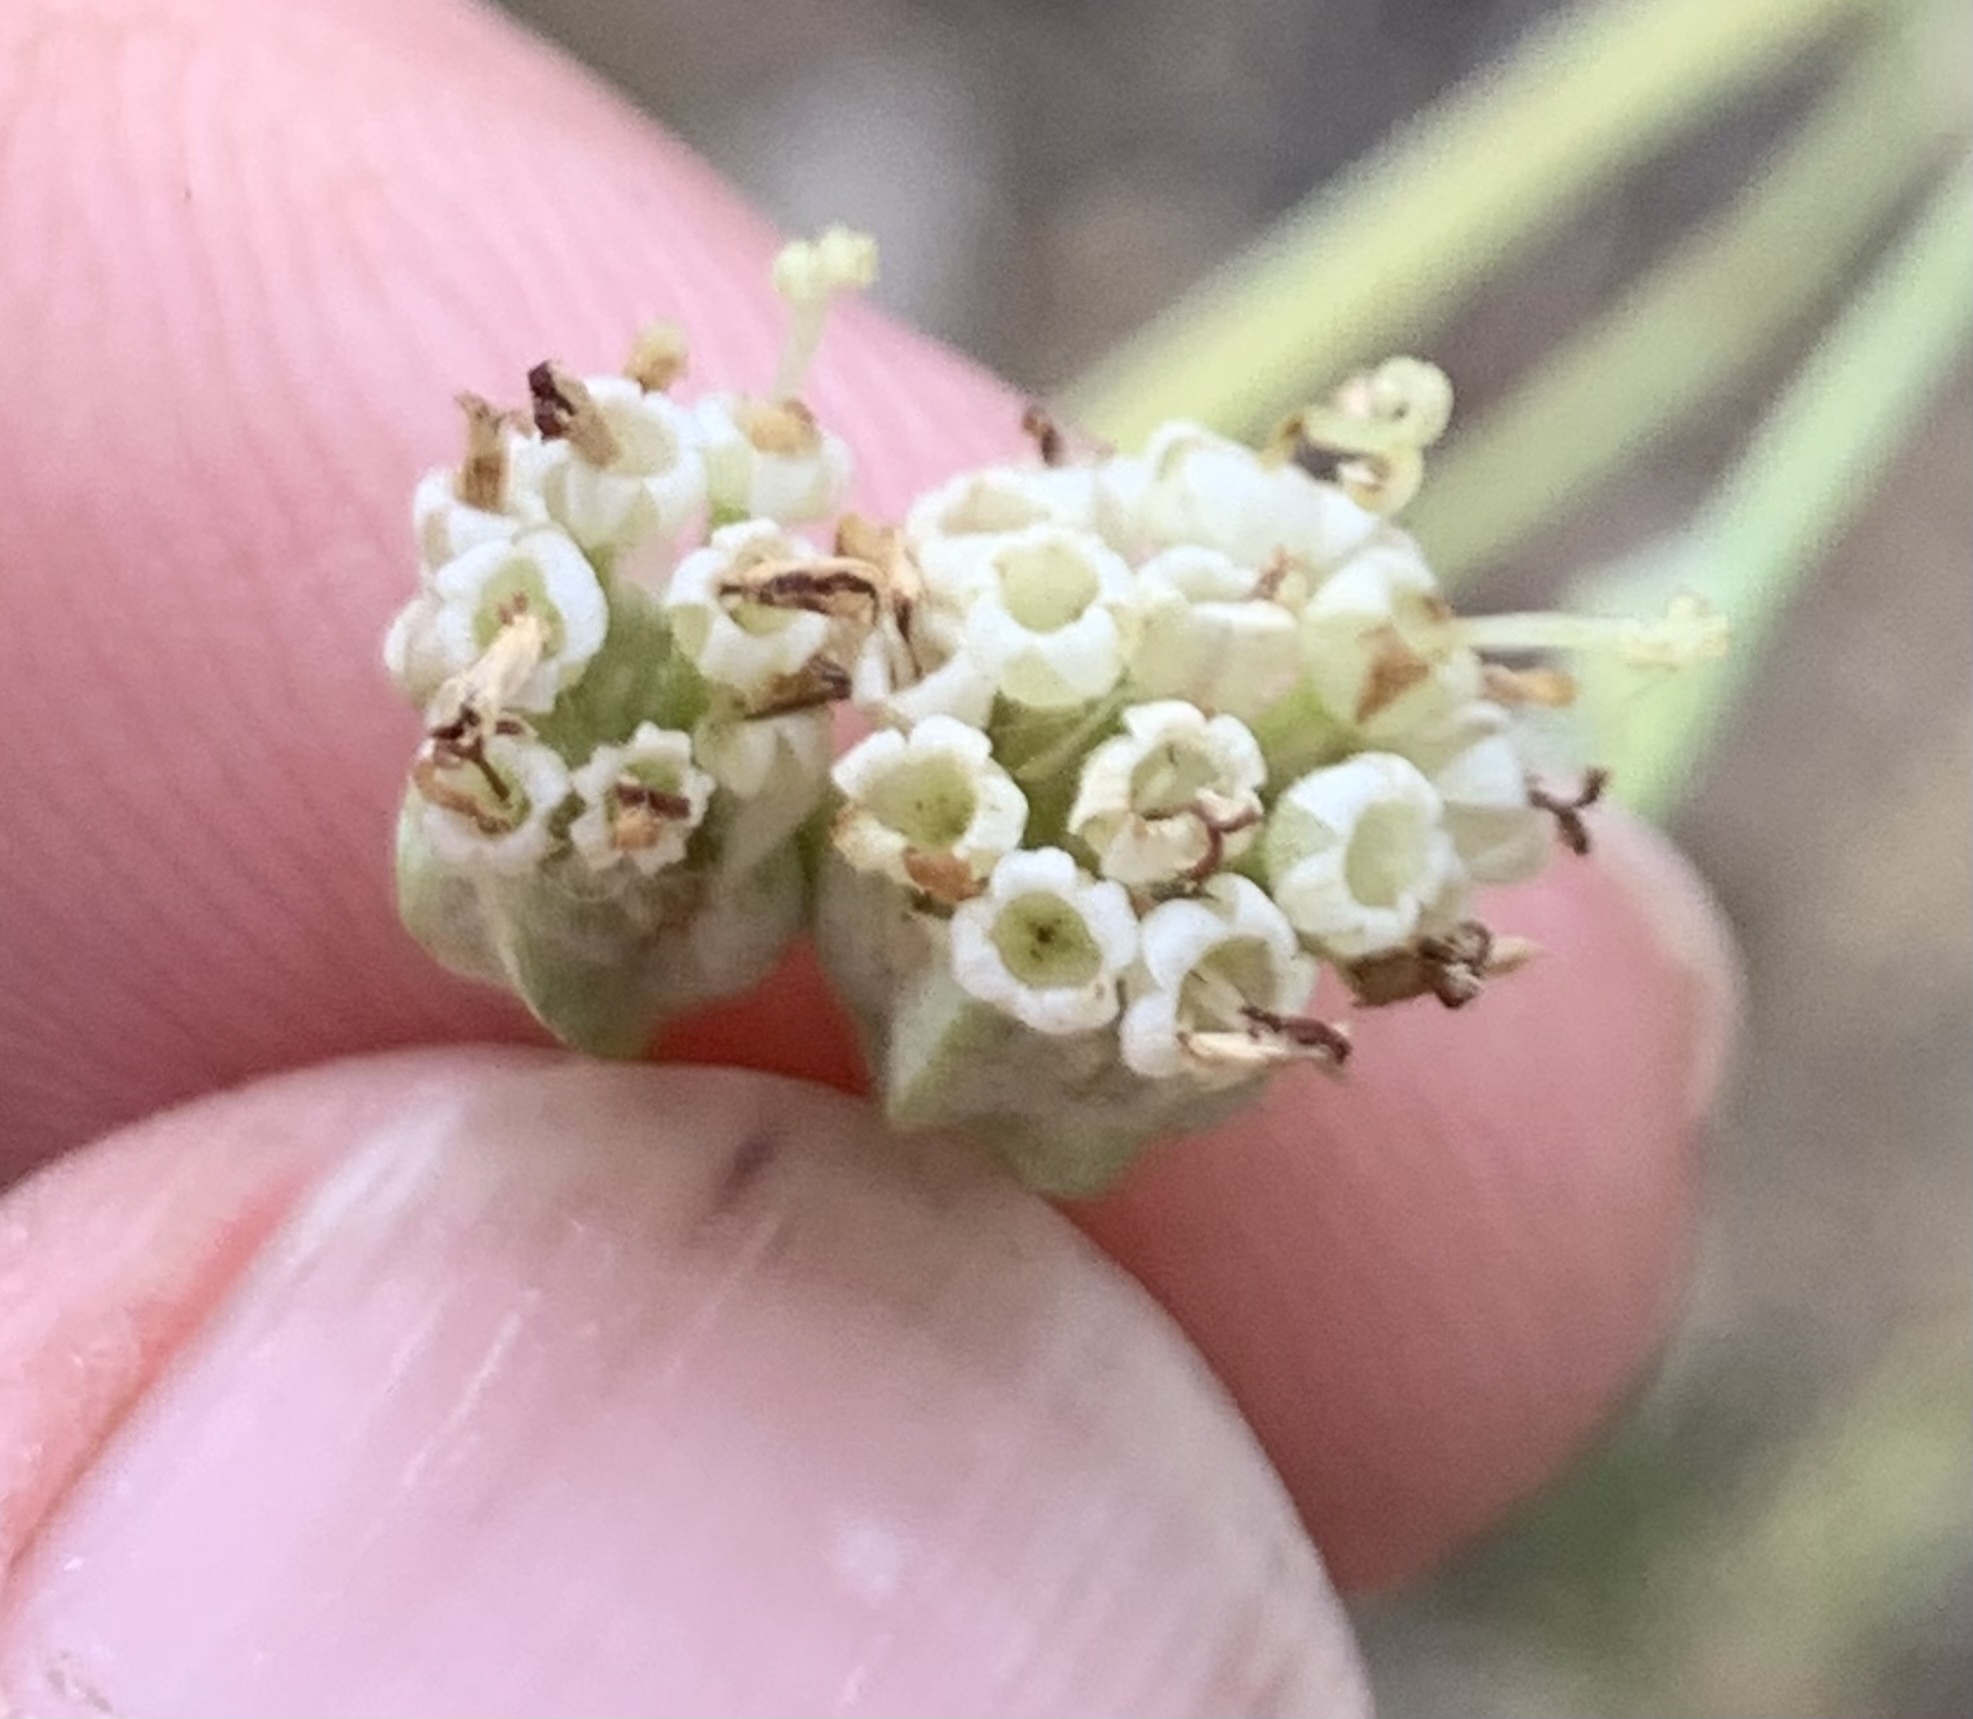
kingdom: Plantae
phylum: Tracheophyta
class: Magnoliopsida
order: Asterales
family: Asteraceae
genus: Hymenopappus
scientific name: Hymenopappus scabiosaeus
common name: Carolina woollywhite
